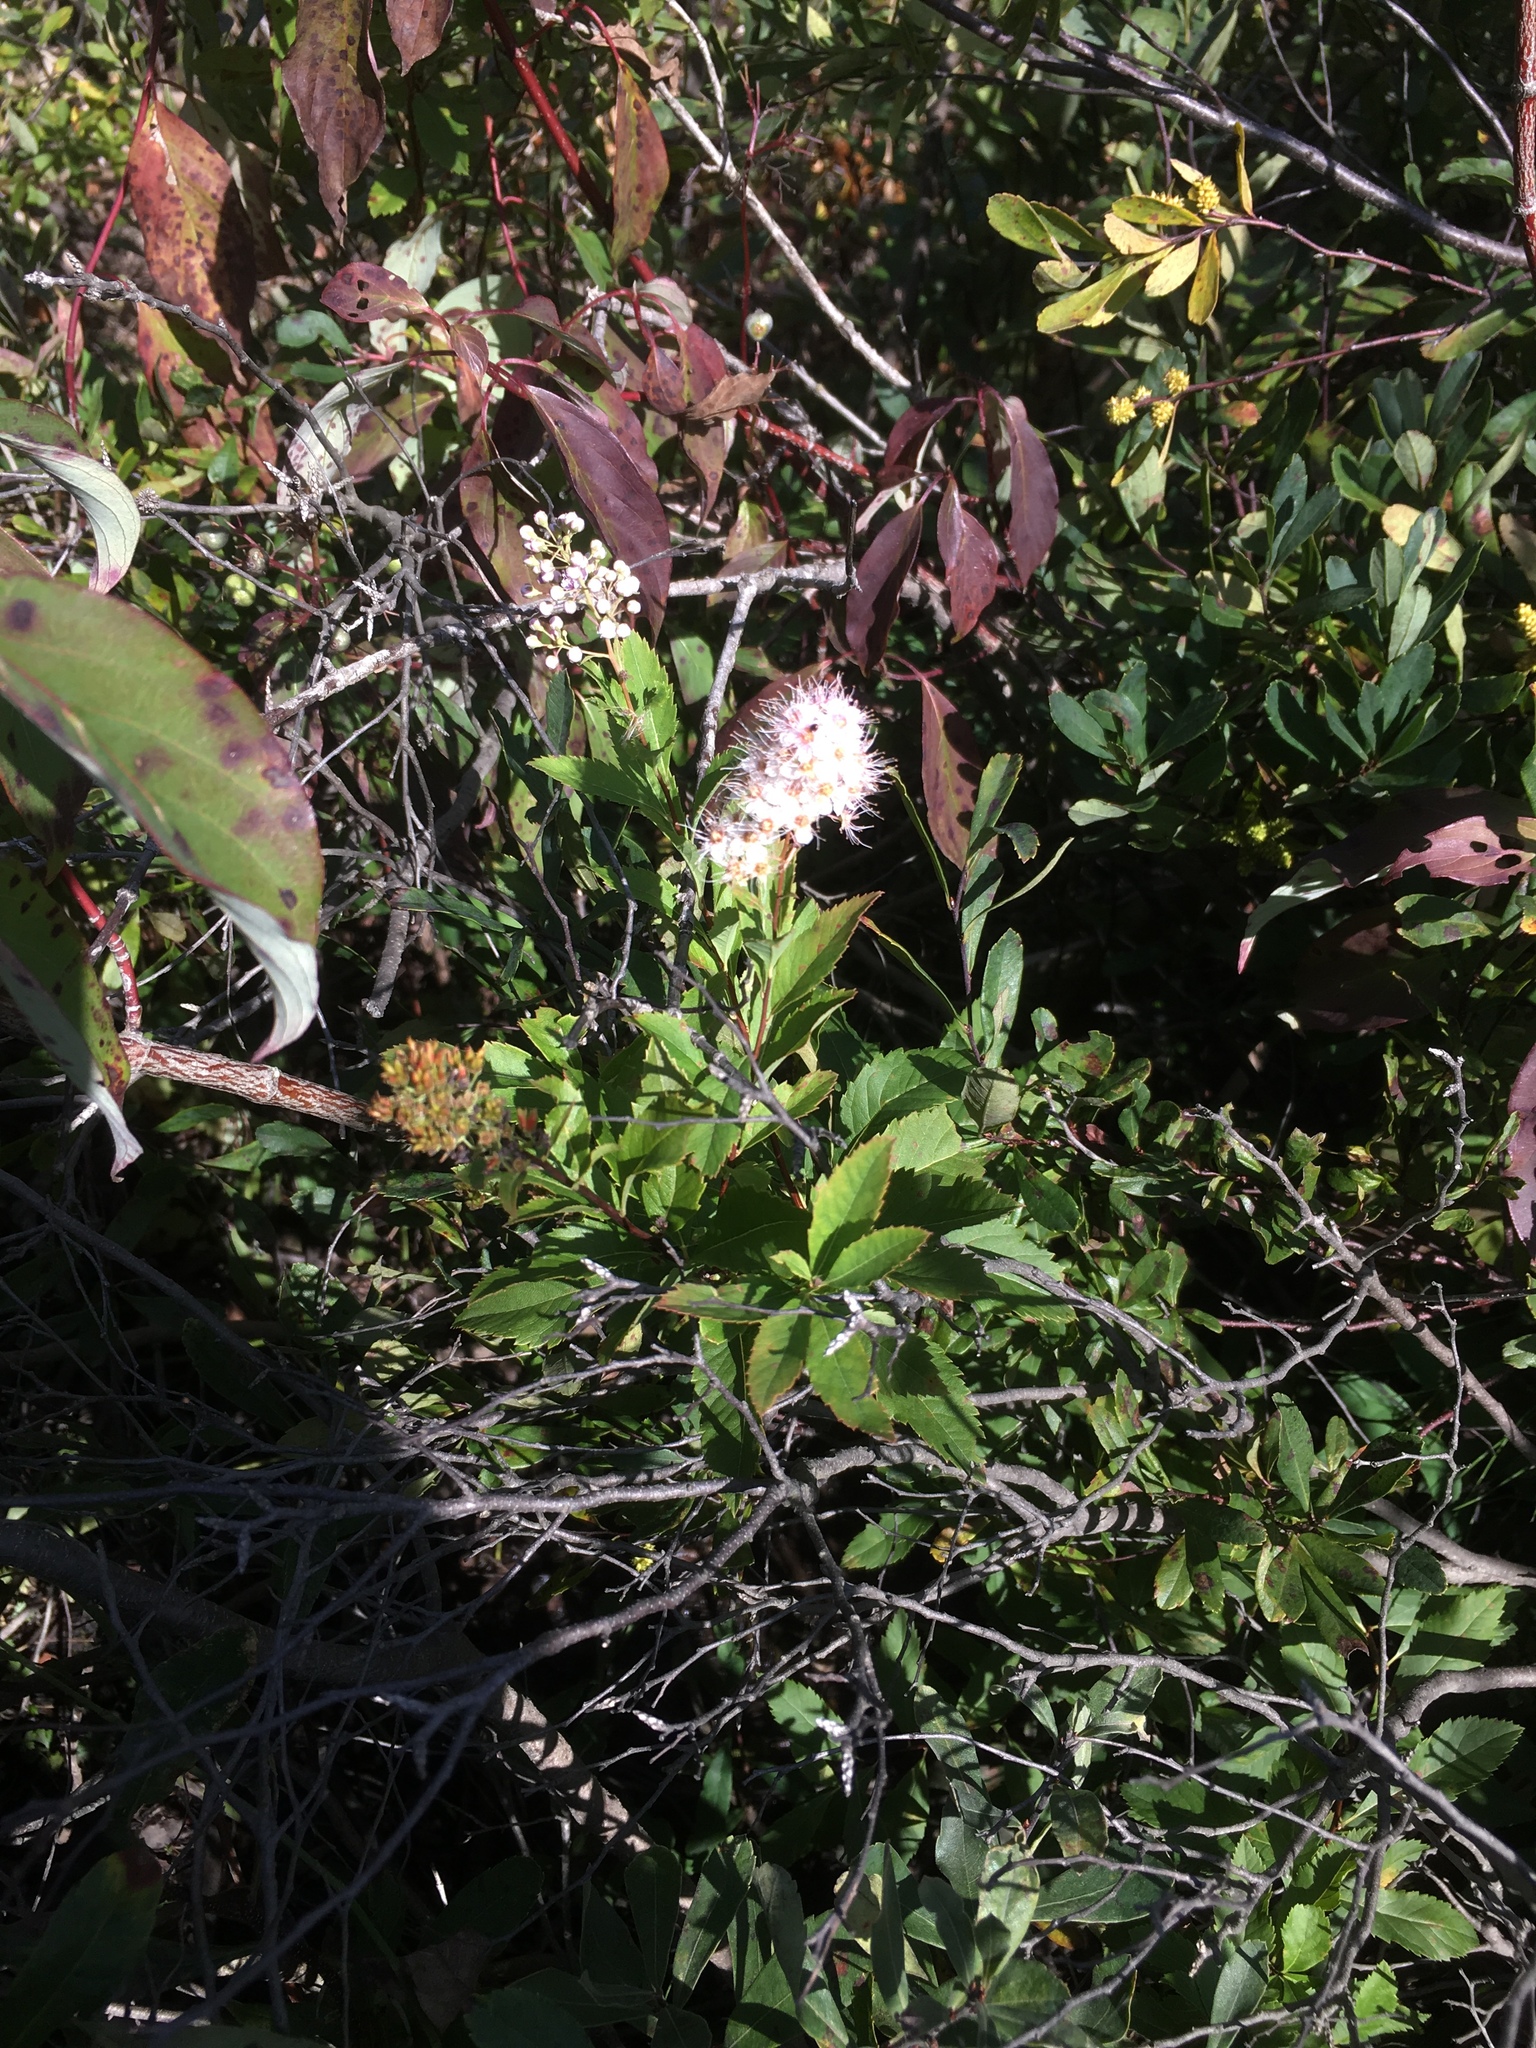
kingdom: Plantae
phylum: Tracheophyta
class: Magnoliopsida
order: Rosales
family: Rosaceae
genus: Spiraea
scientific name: Spiraea alba
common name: Pale bridewort
